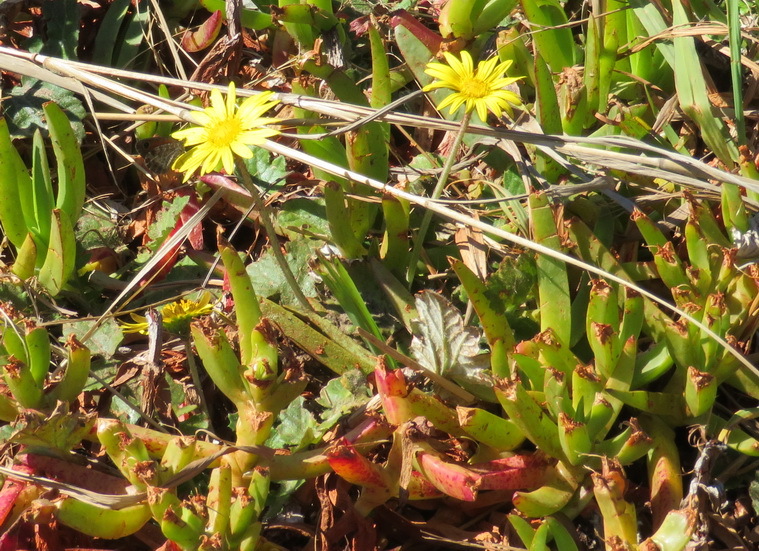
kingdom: Plantae
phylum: Tracheophyta
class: Magnoliopsida
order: Asterales
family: Asteraceae
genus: Arctotheca
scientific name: Arctotheca prostrata
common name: Capeweed
